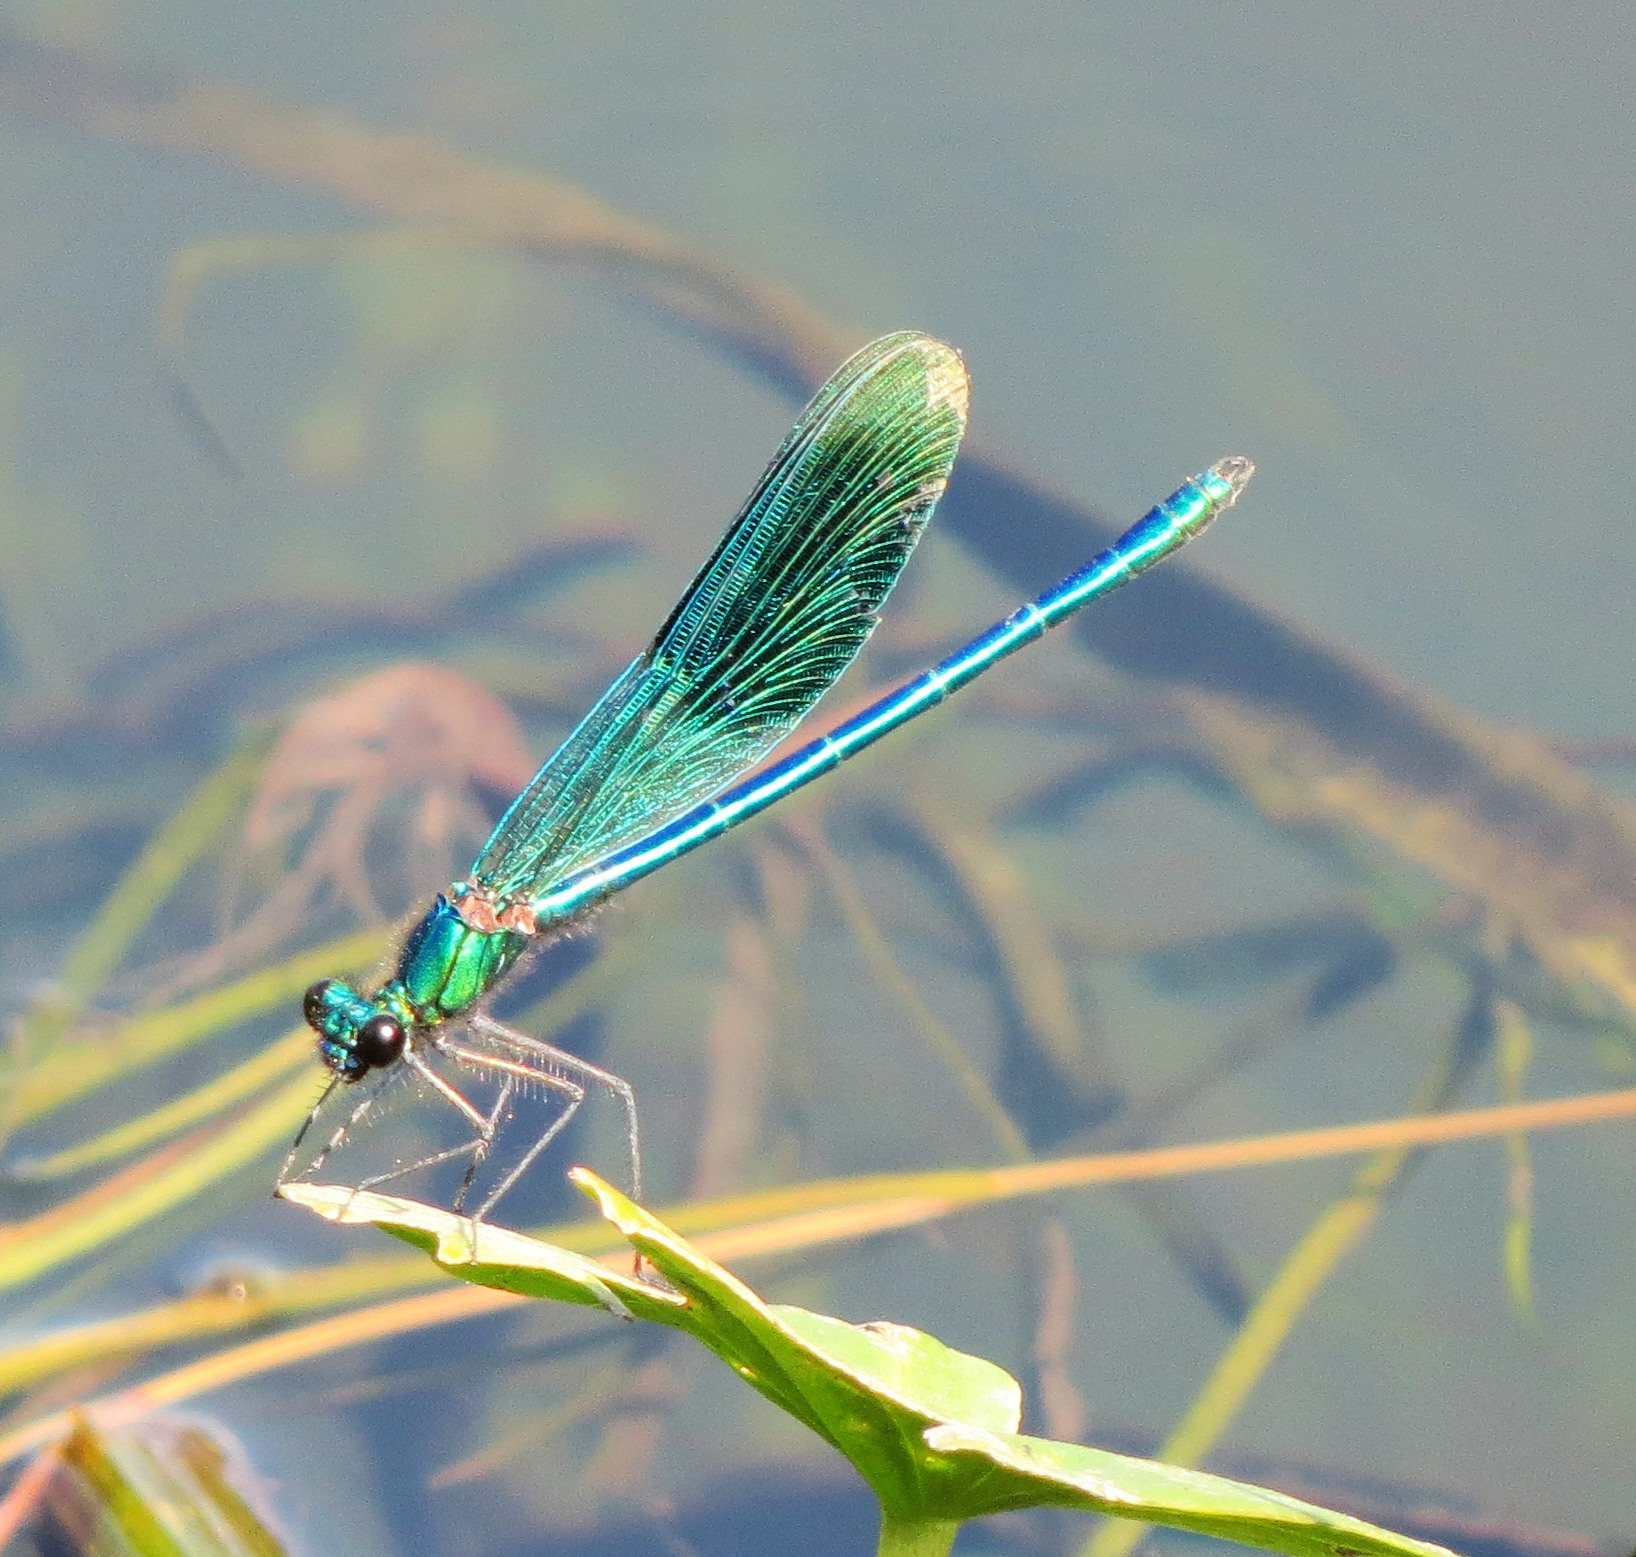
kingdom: Animalia
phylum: Arthropoda
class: Insecta
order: Odonata
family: Calopterygidae
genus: Calopteryx
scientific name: Calopteryx splendens
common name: Banded demoiselle
